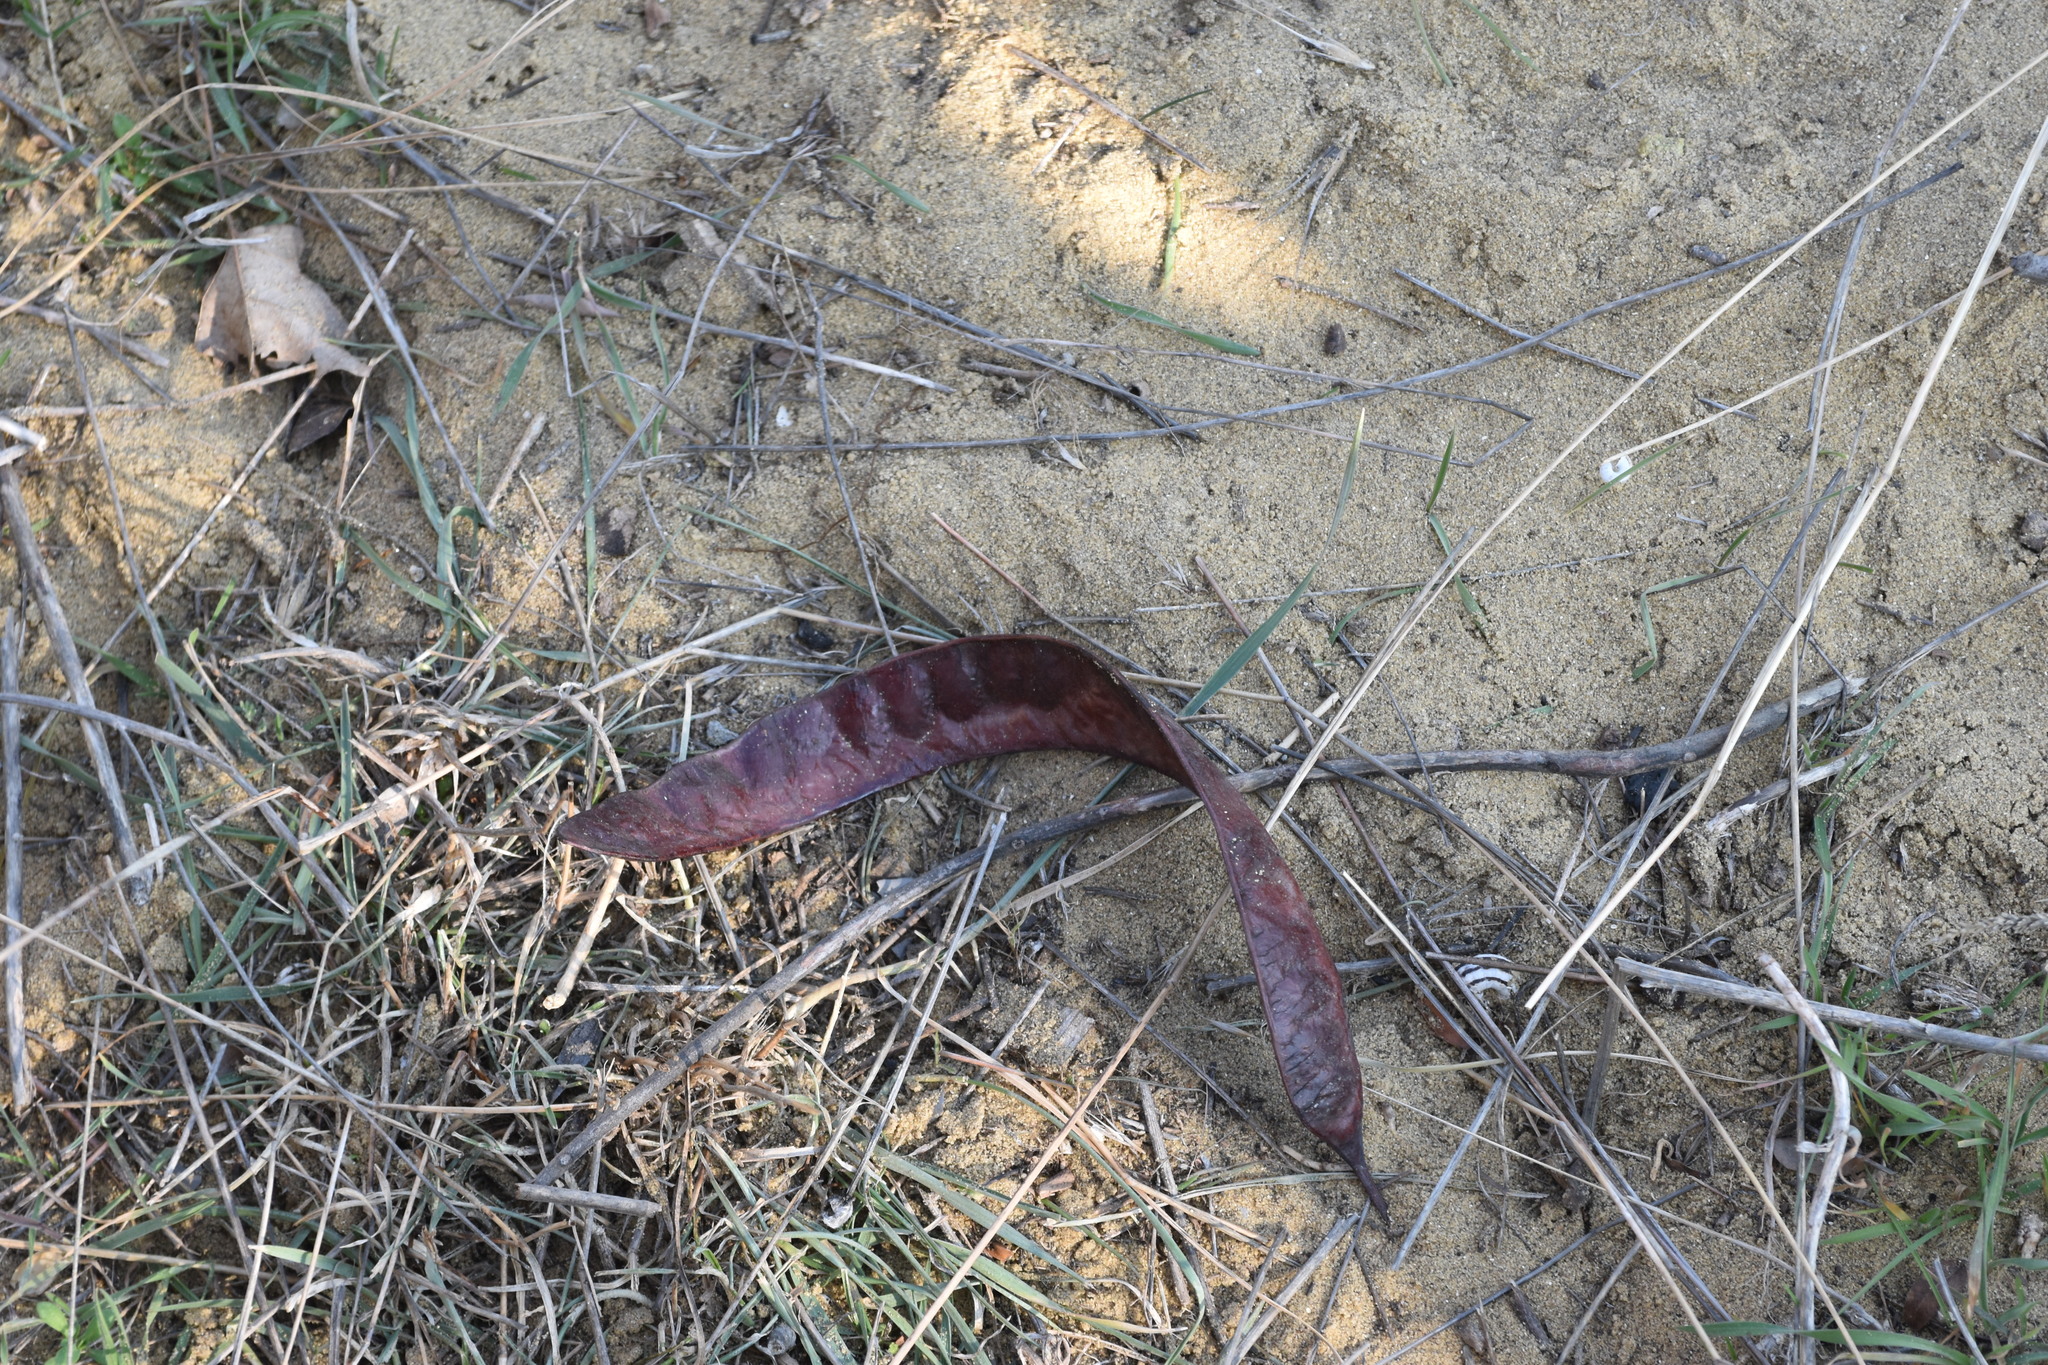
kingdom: Plantae
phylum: Tracheophyta
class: Magnoliopsida
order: Fabales
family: Fabaceae
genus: Gleditsia
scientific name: Gleditsia triacanthos
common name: Common honeylocust
